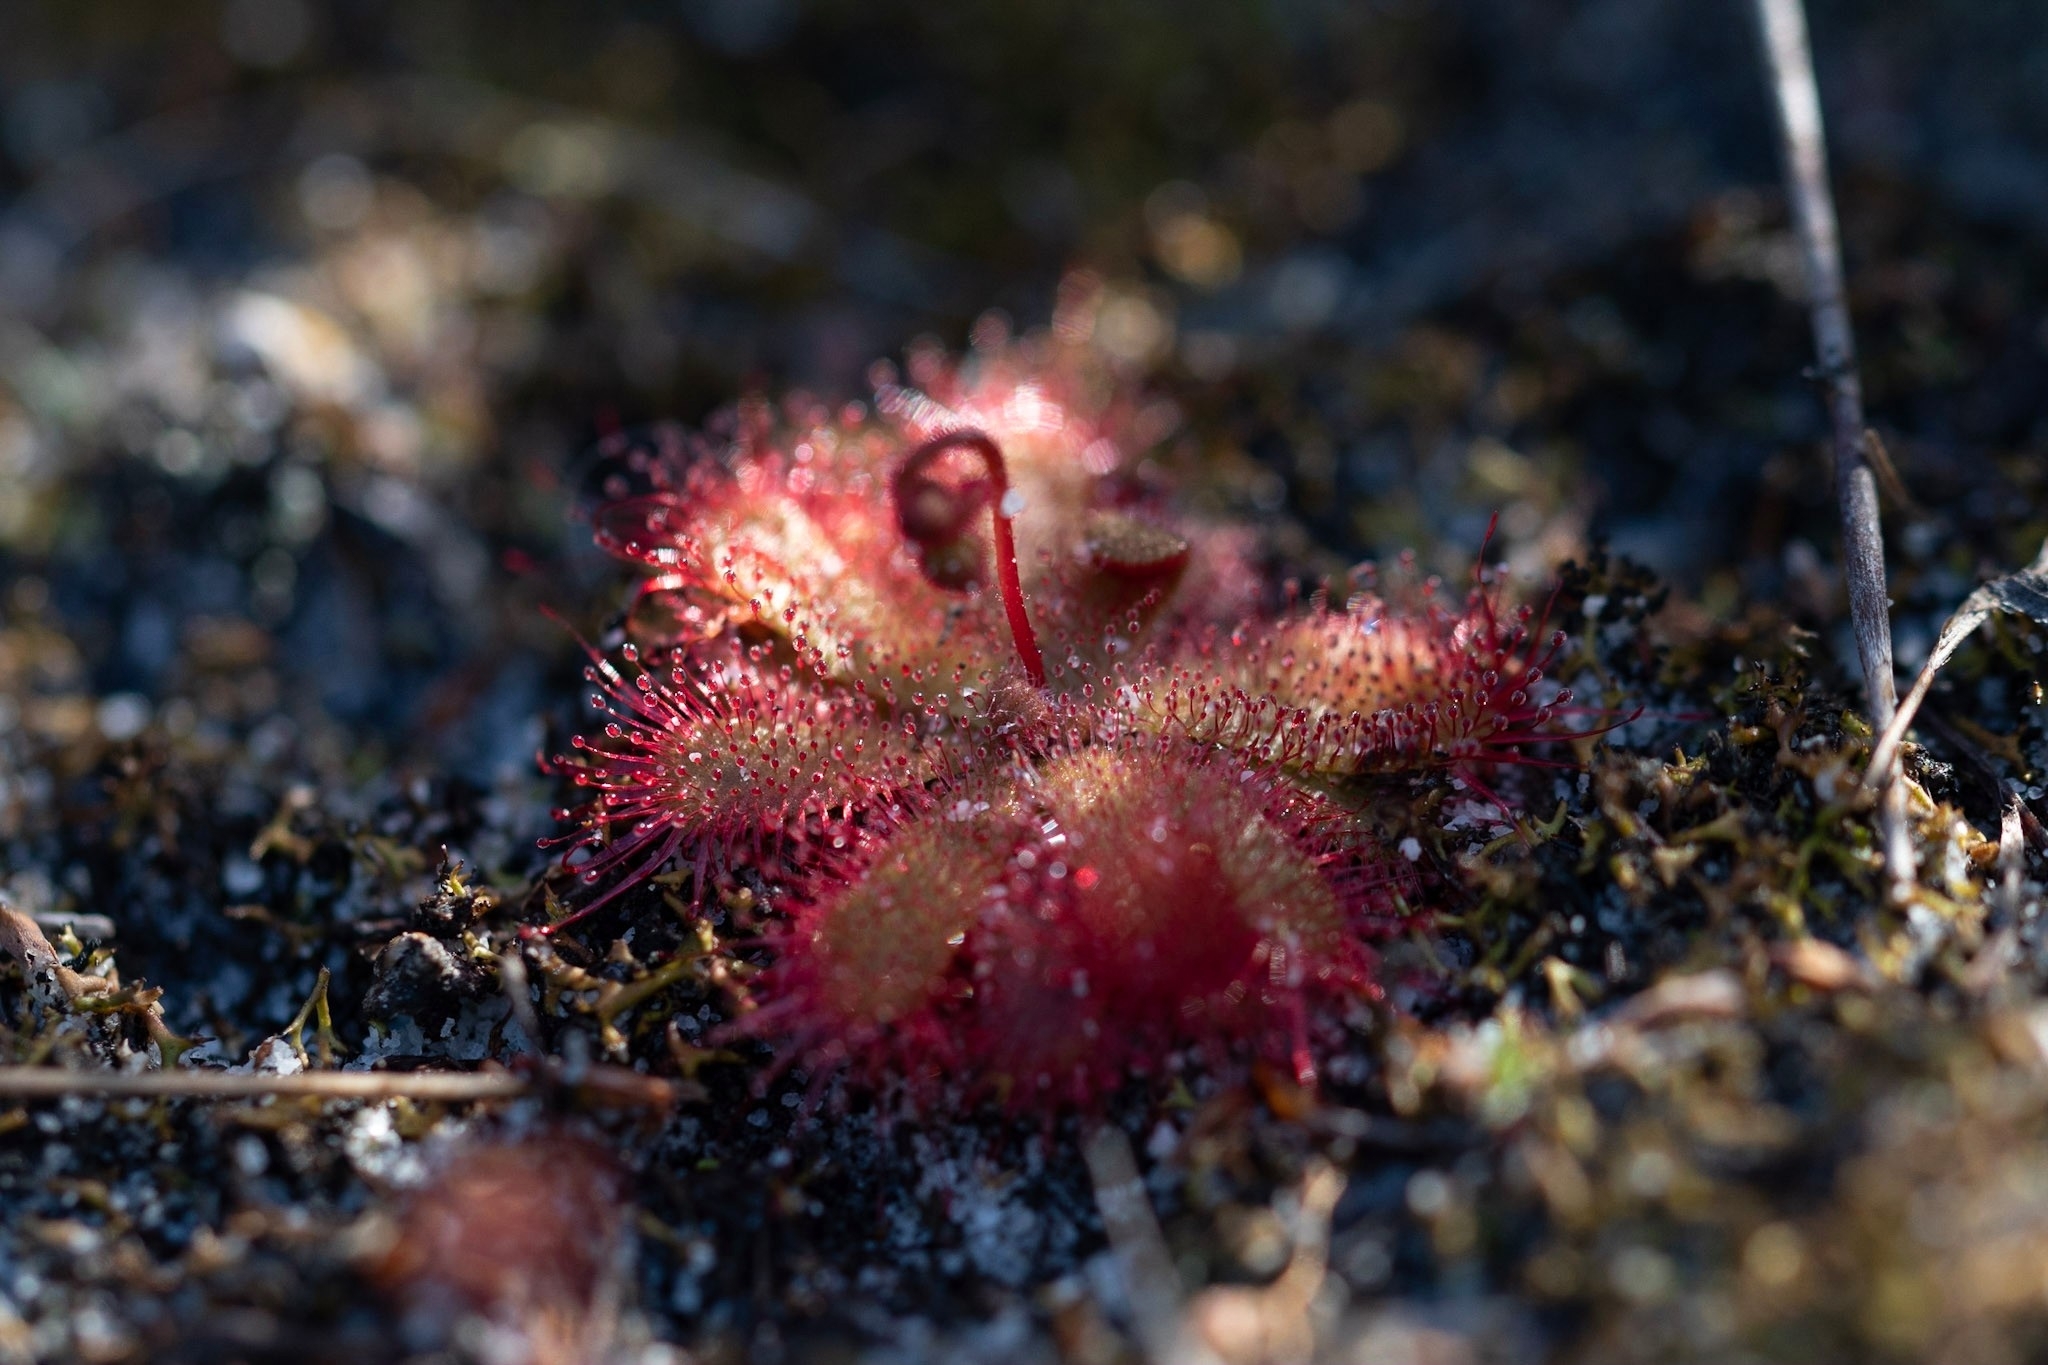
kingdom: Plantae
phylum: Tracheophyta
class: Magnoliopsida
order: Caryophyllales
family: Droseraceae
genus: Drosera
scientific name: Drosera trinervia
